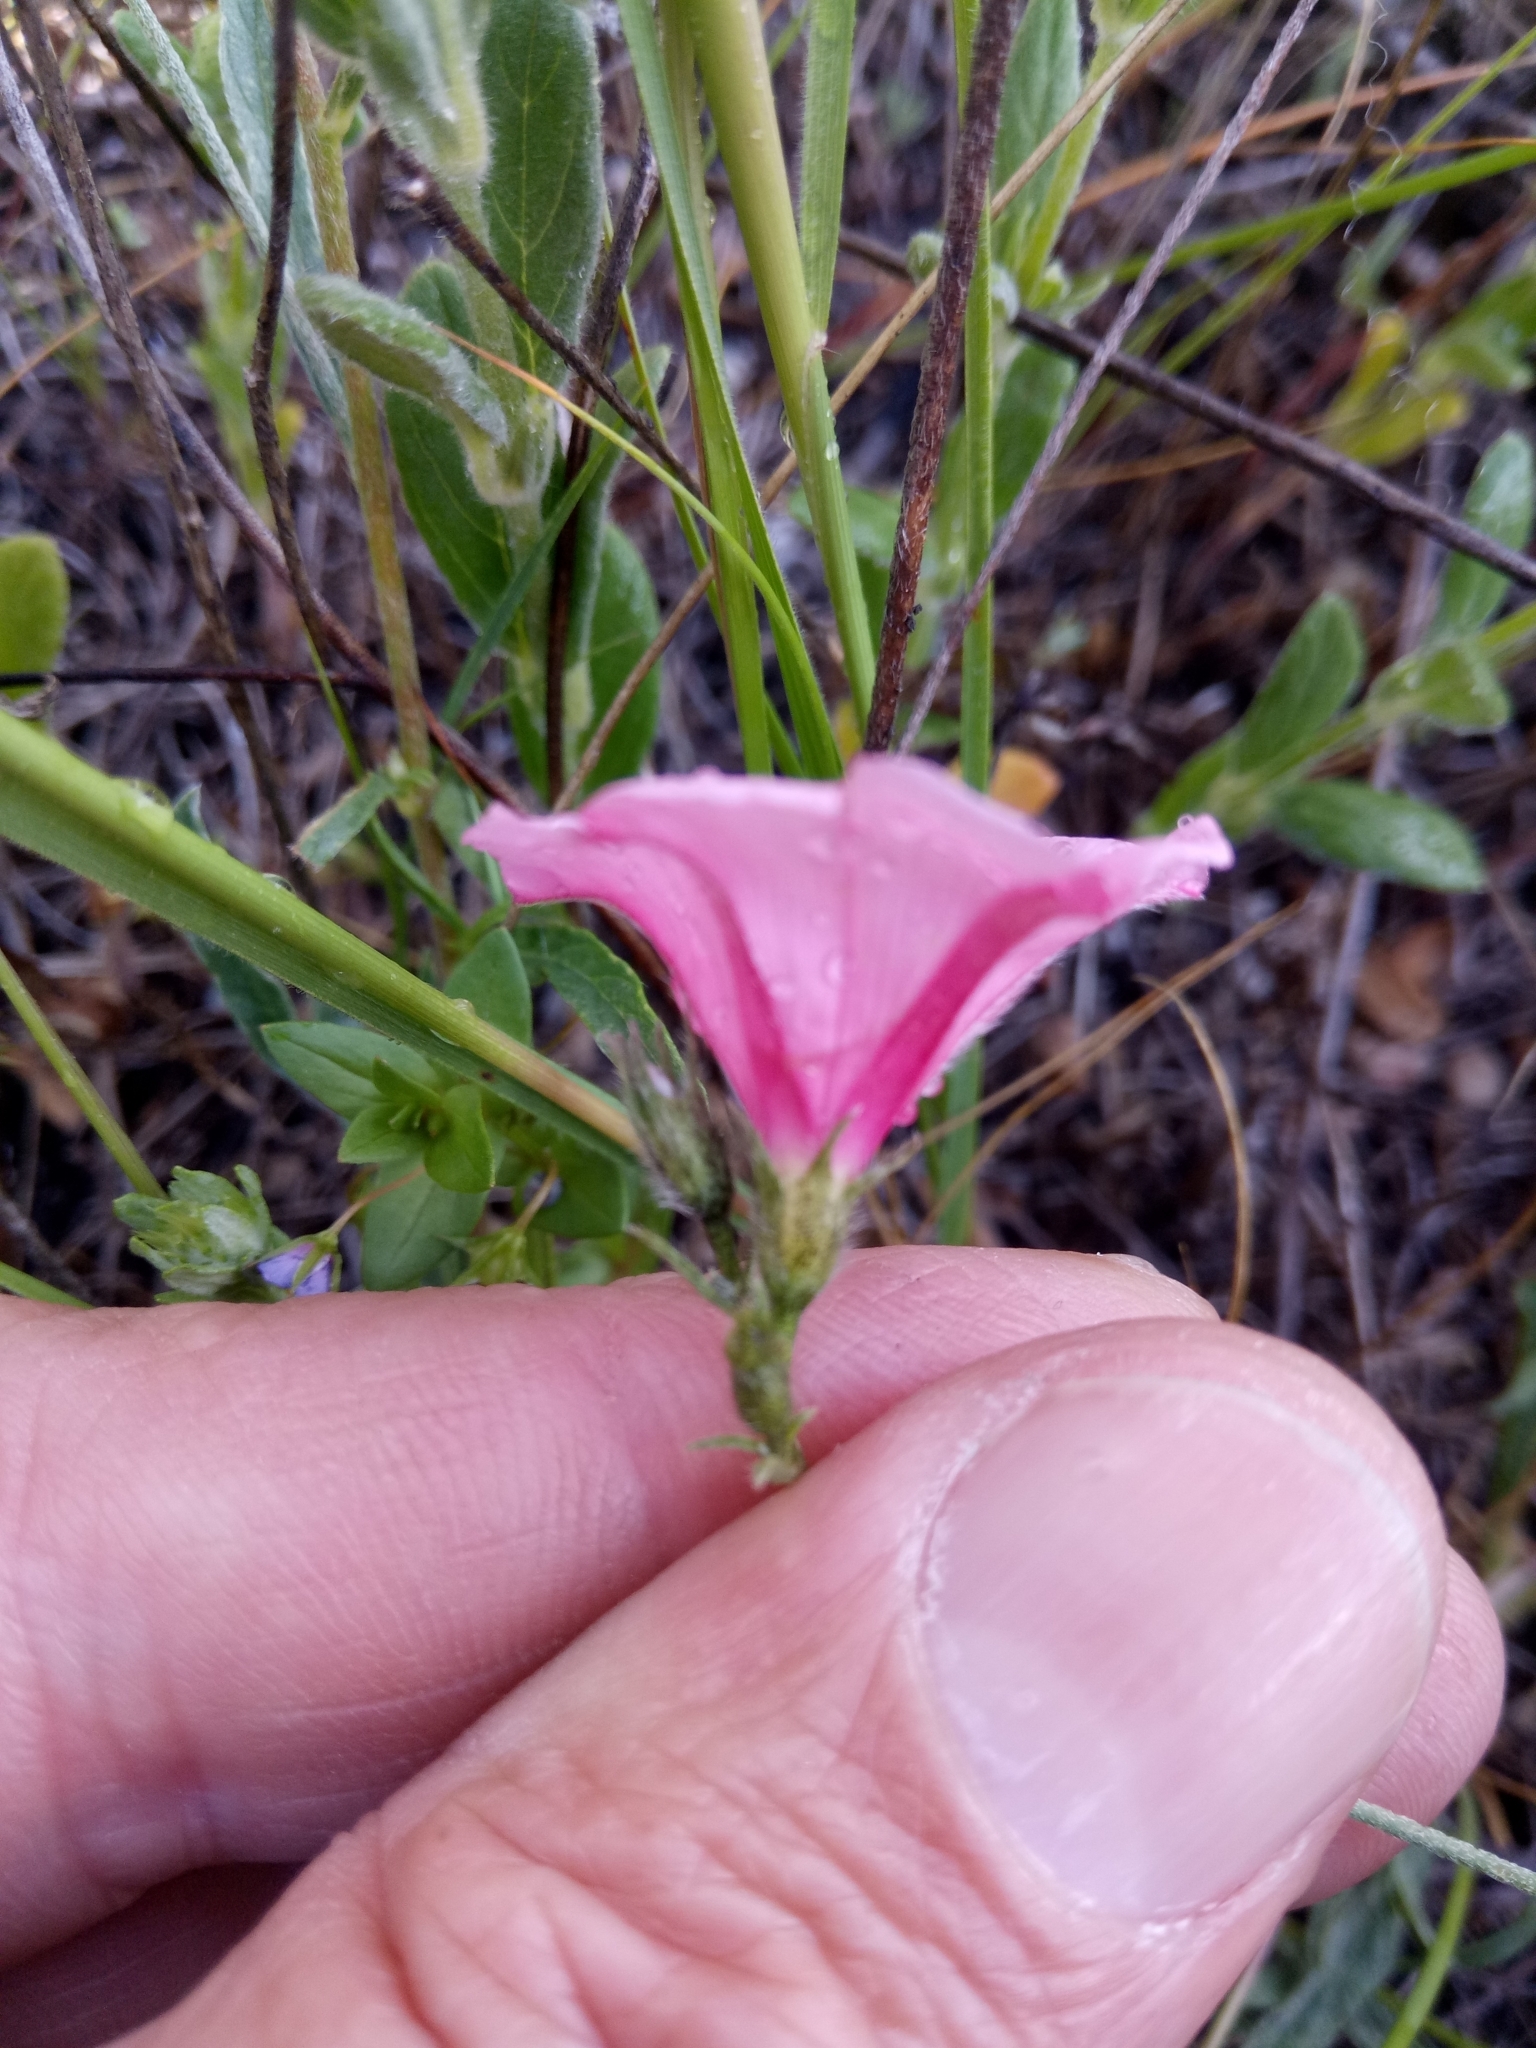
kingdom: Plantae
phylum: Tracheophyta
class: Magnoliopsida
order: Solanales
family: Convolvulaceae
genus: Convolvulus
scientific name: Convolvulus cantabrica
